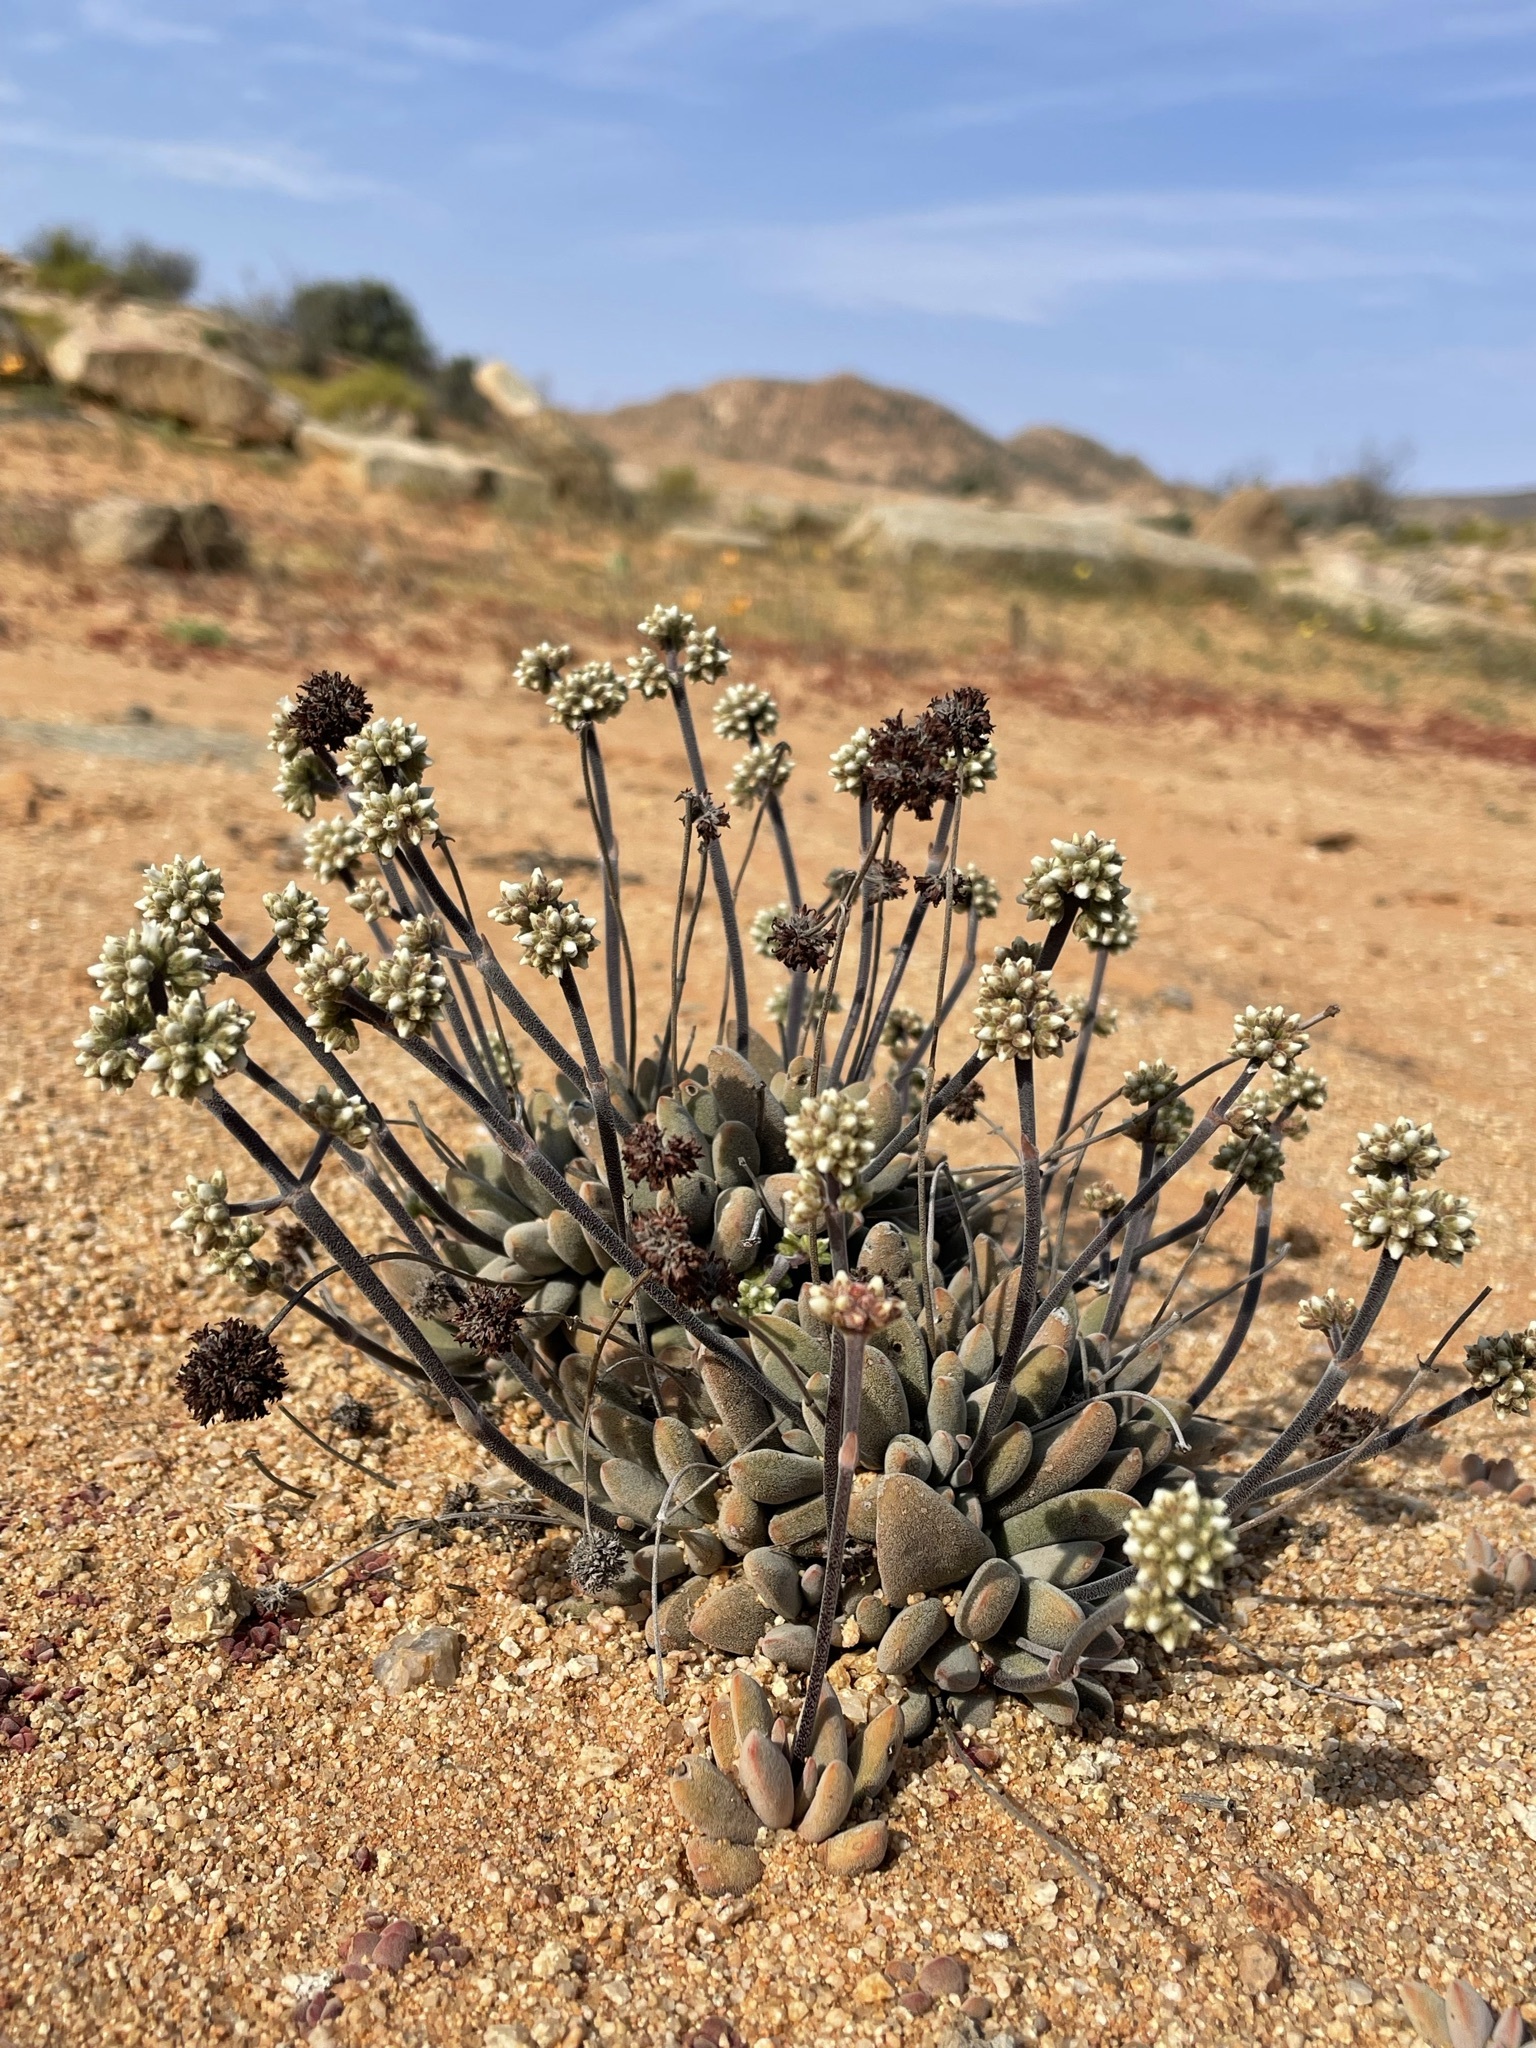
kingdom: Plantae
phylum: Tracheophyta
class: Magnoliopsida
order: Saxifragales
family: Crassulaceae
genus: Crassula
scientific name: Crassula namaquensis
